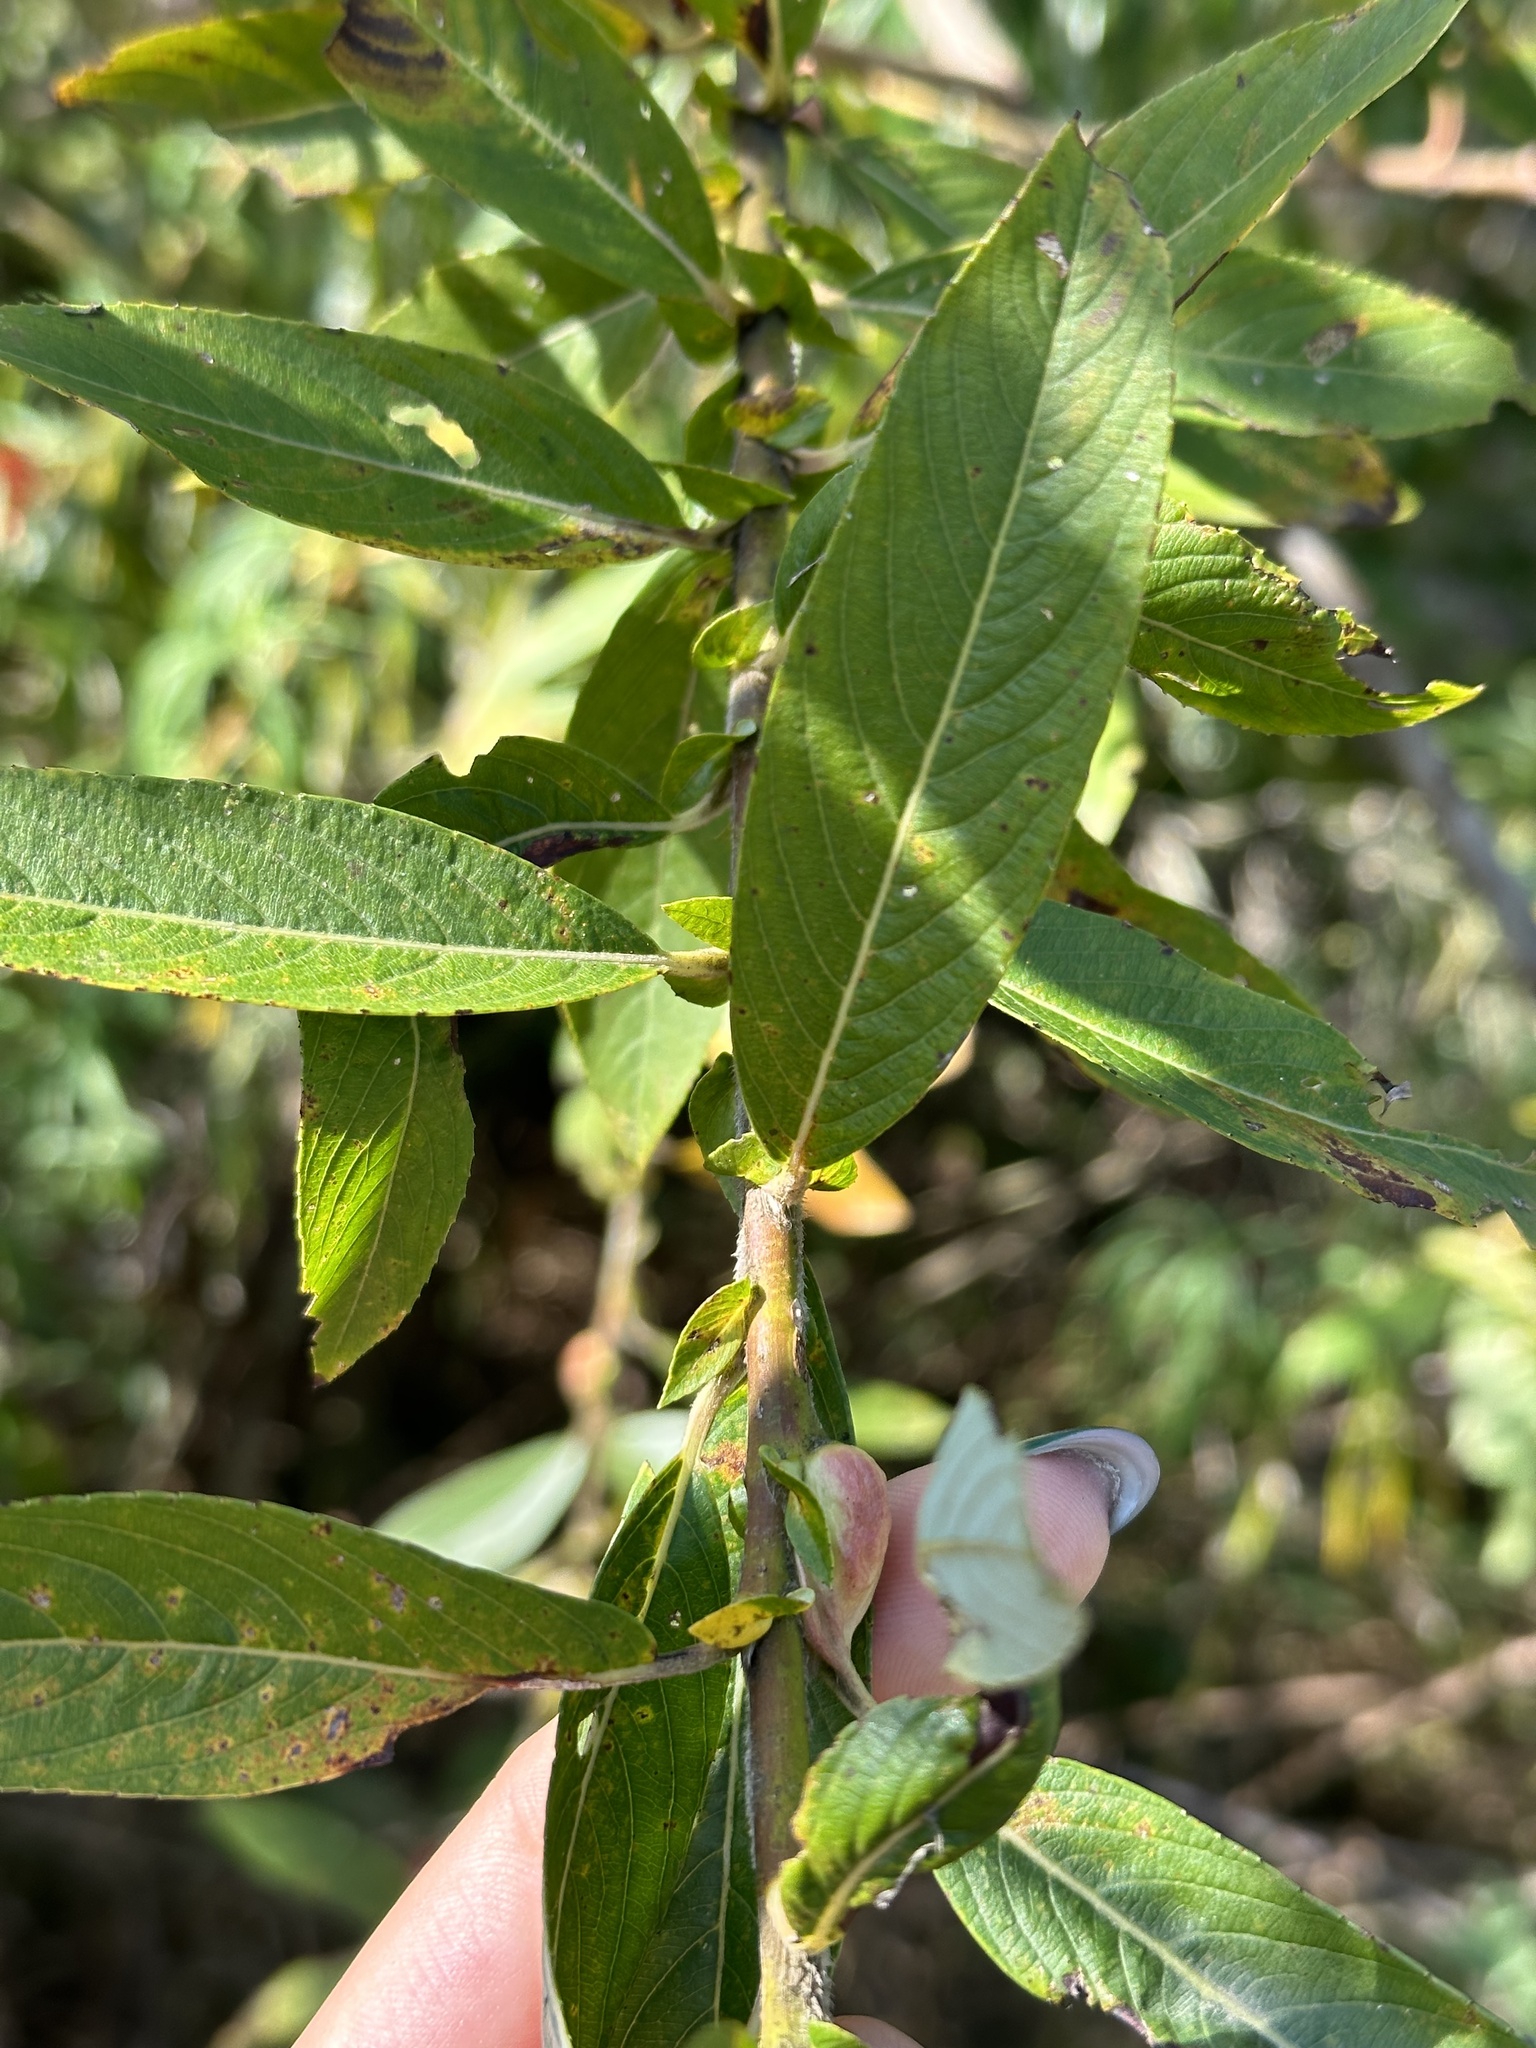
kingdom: Plantae
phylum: Tracheophyta
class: Magnoliopsida
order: Malpighiales
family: Salicaceae
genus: Salix
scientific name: Salix gracilistyla
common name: Rose-gold pussy willow
